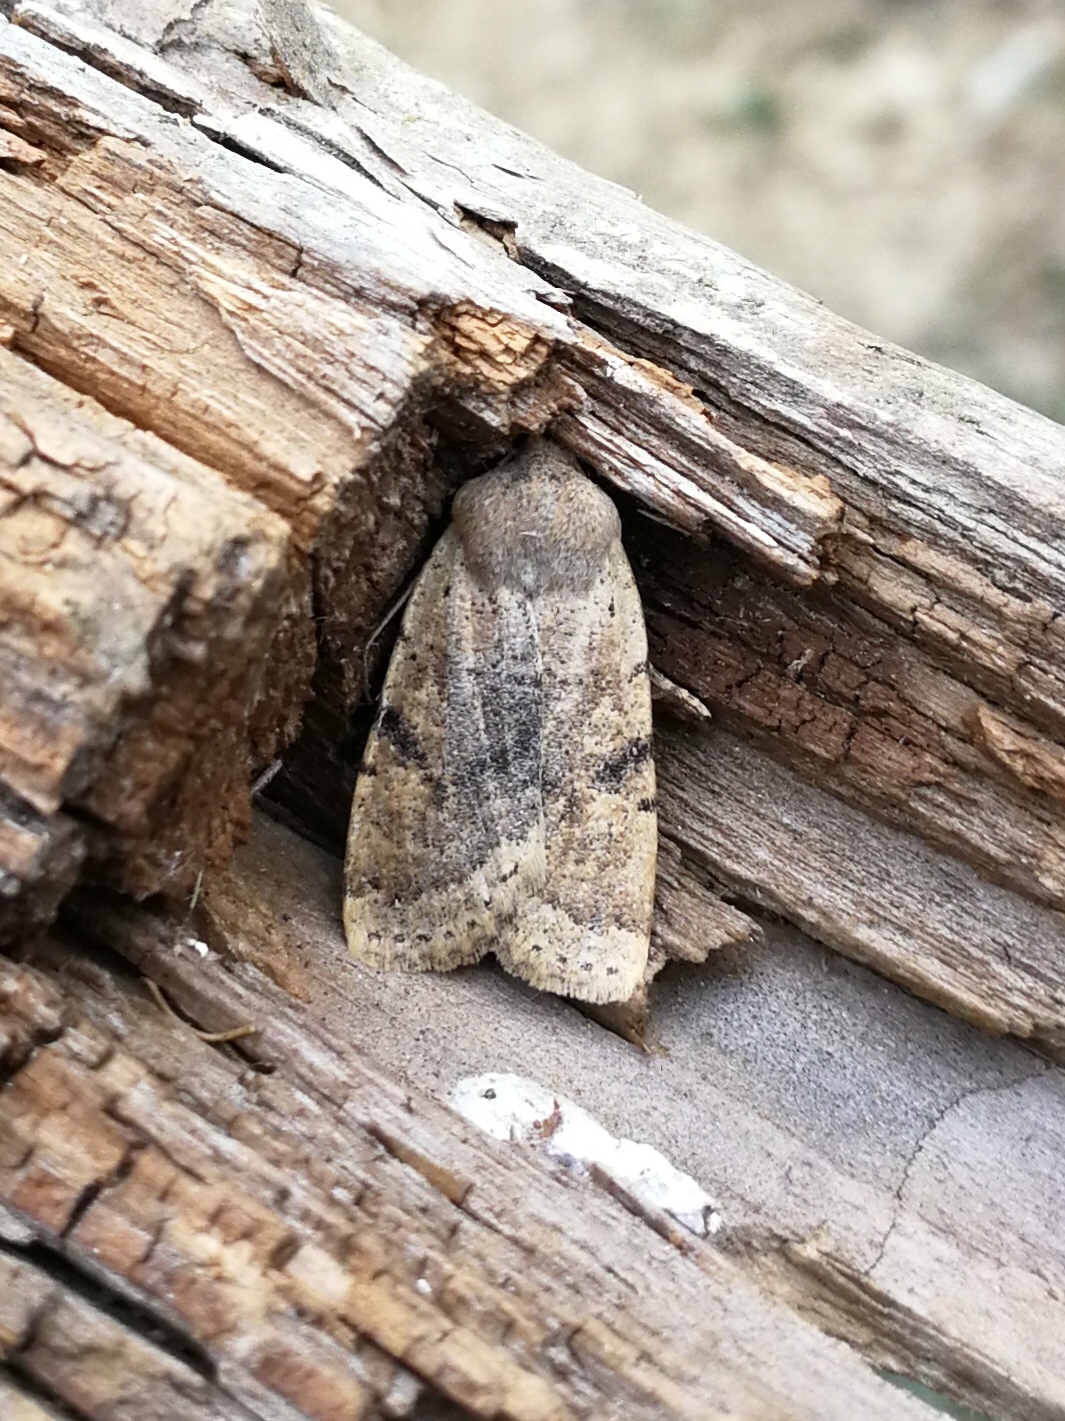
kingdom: Animalia
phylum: Arthropoda
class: Insecta
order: Lepidoptera
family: Noctuidae
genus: Conistra
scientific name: Conistra daubei
